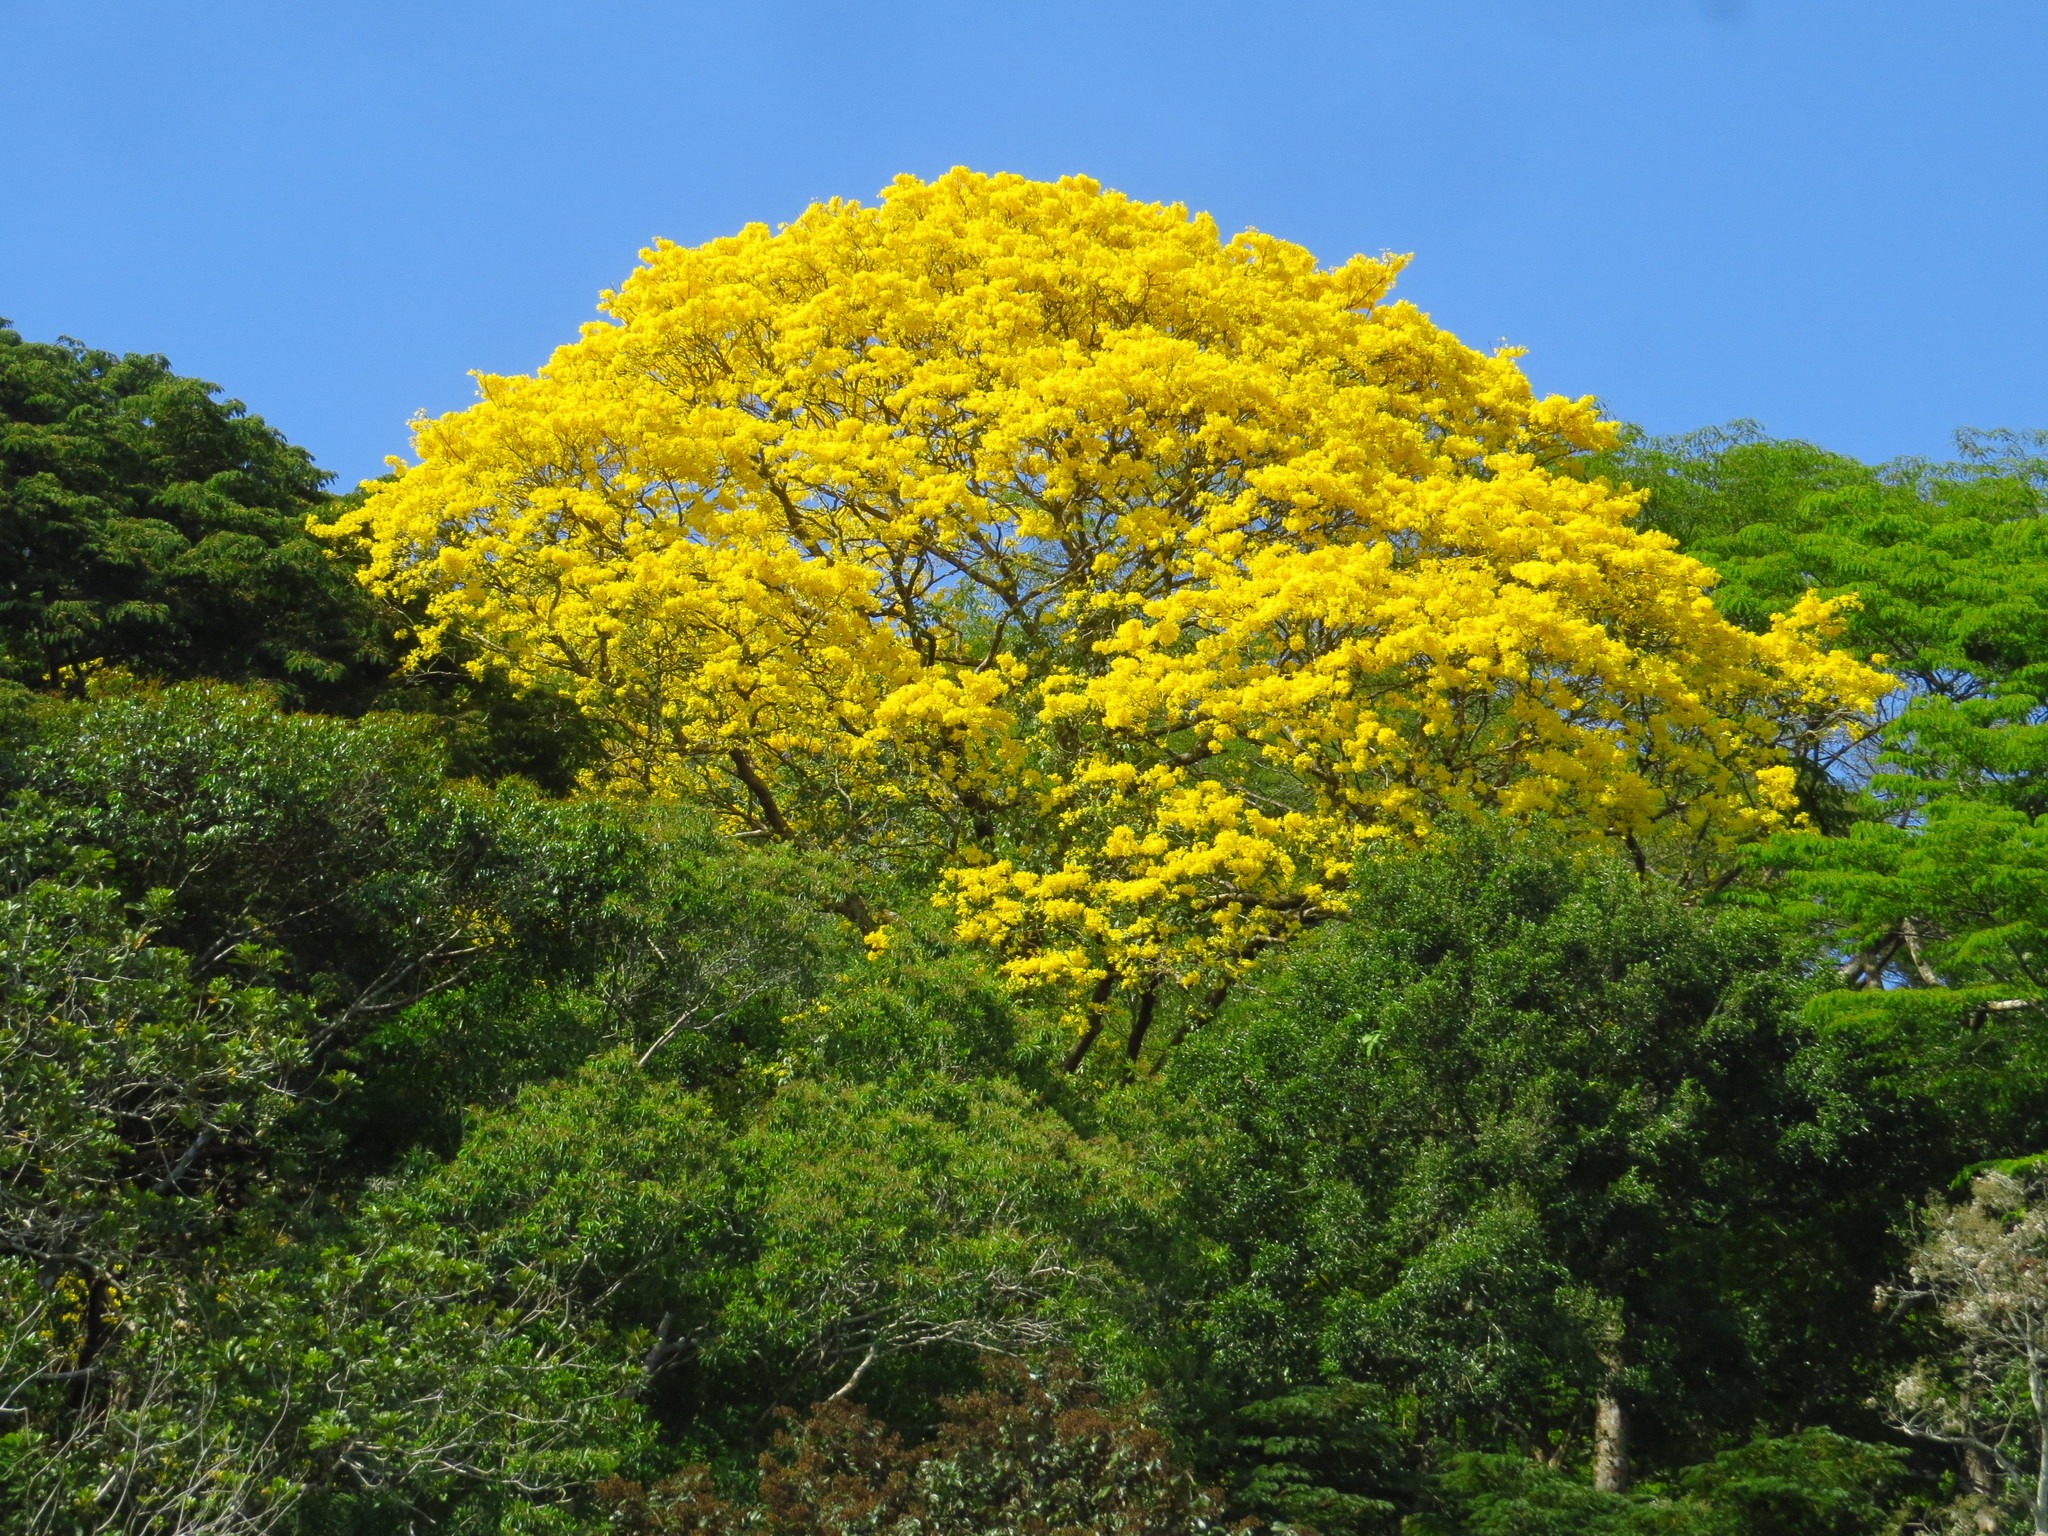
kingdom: Plantae
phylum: Tracheophyta
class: Magnoliopsida
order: Lamiales
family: Bignoniaceae
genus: Handroanthus
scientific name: Handroanthus guayacan
